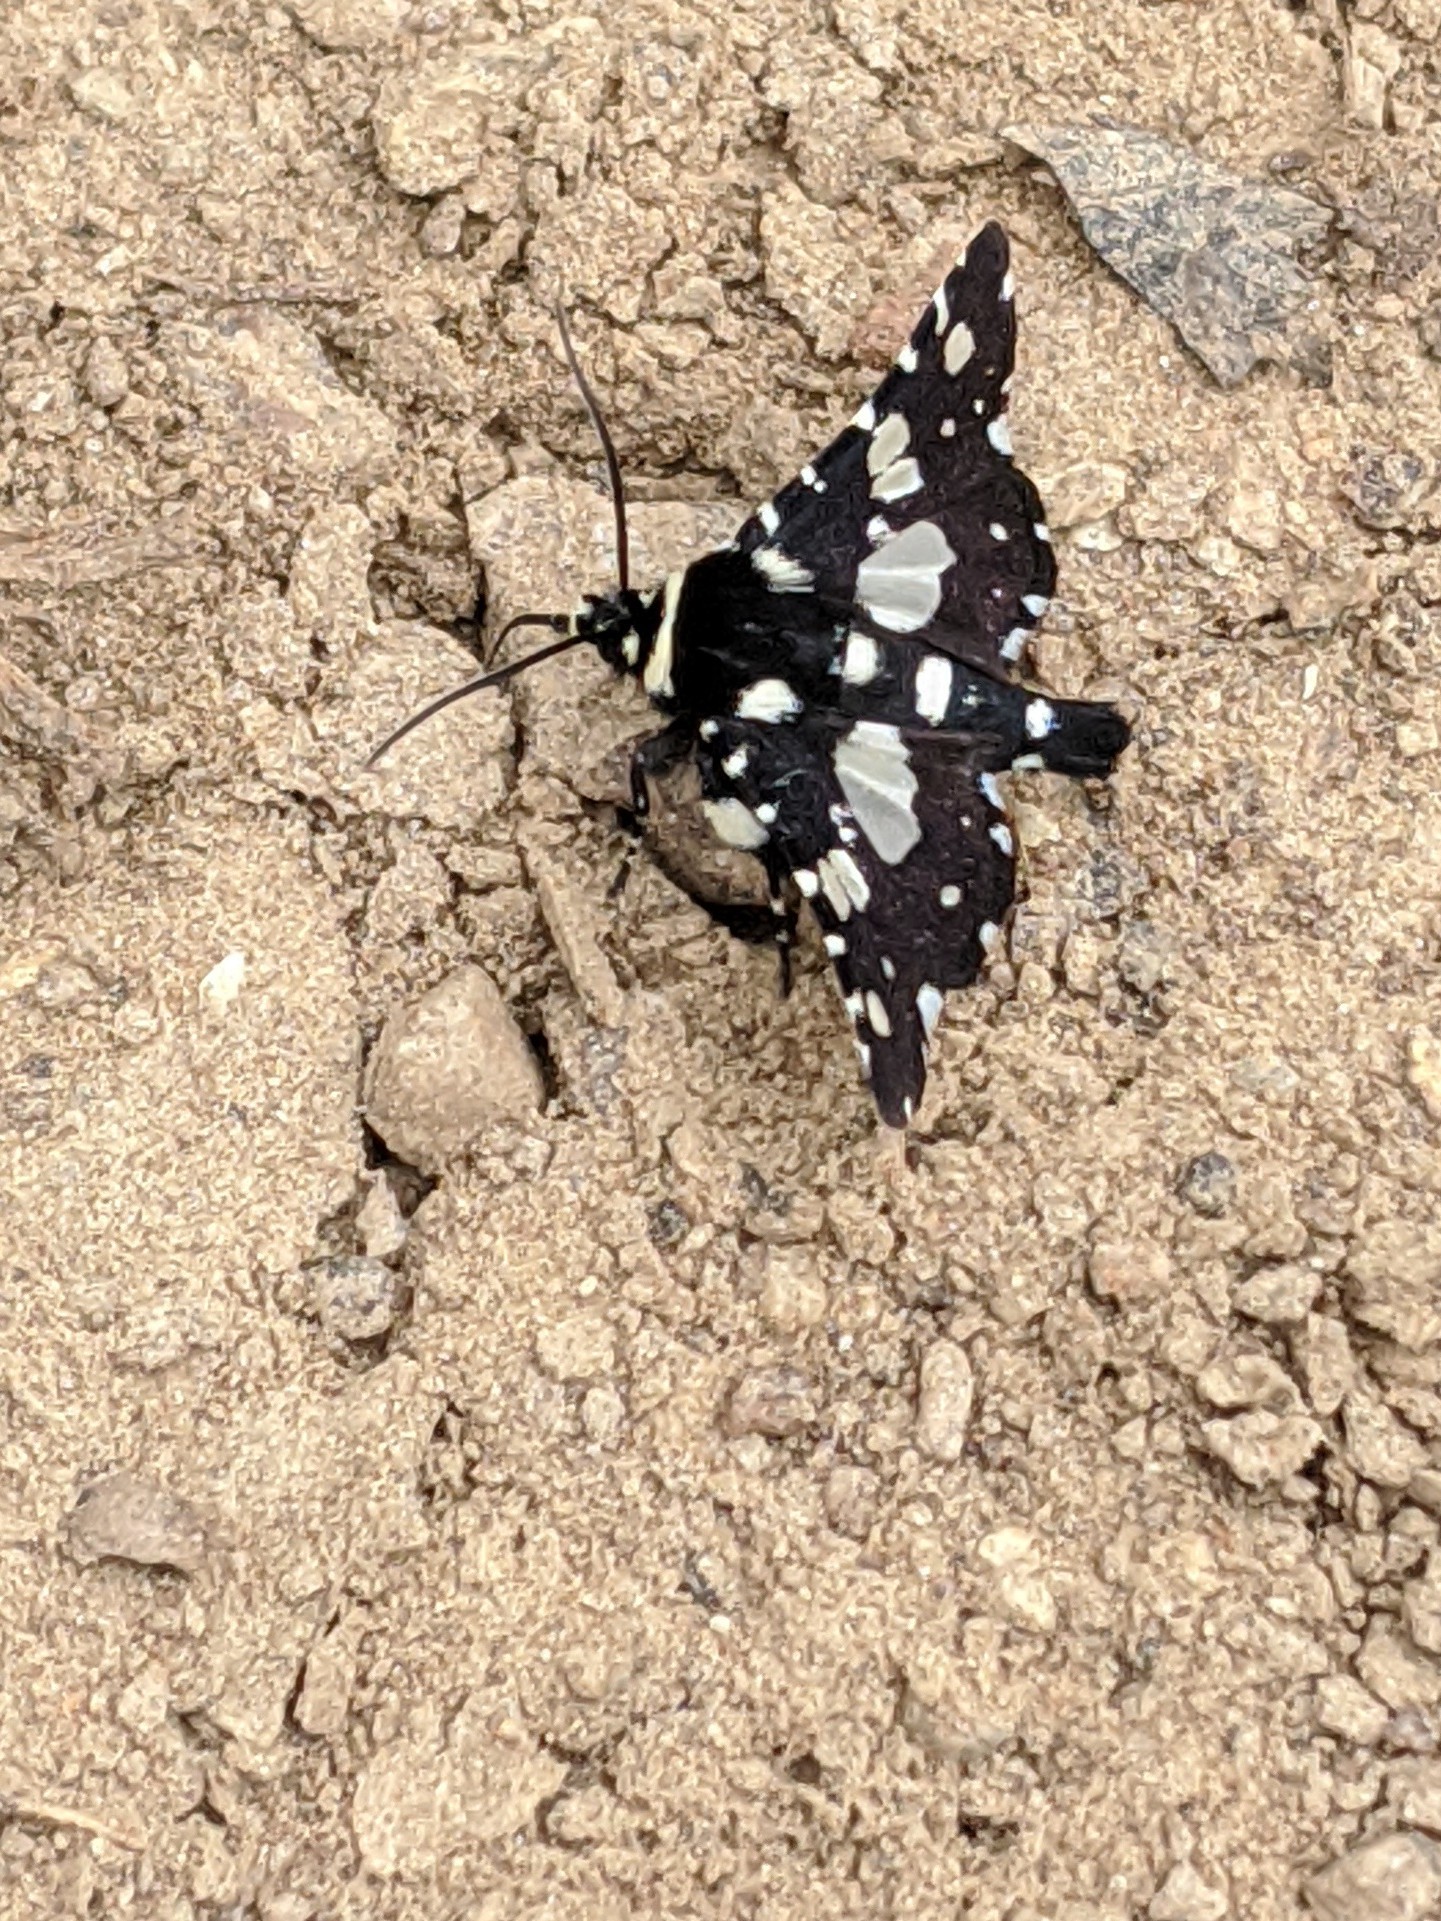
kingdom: Animalia
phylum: Arthropoda
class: Insecta
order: Lepidoptera
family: Thyrididae
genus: Pseudothyris
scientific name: Pseudothyris sepulchralis
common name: Mournful thyris moth
